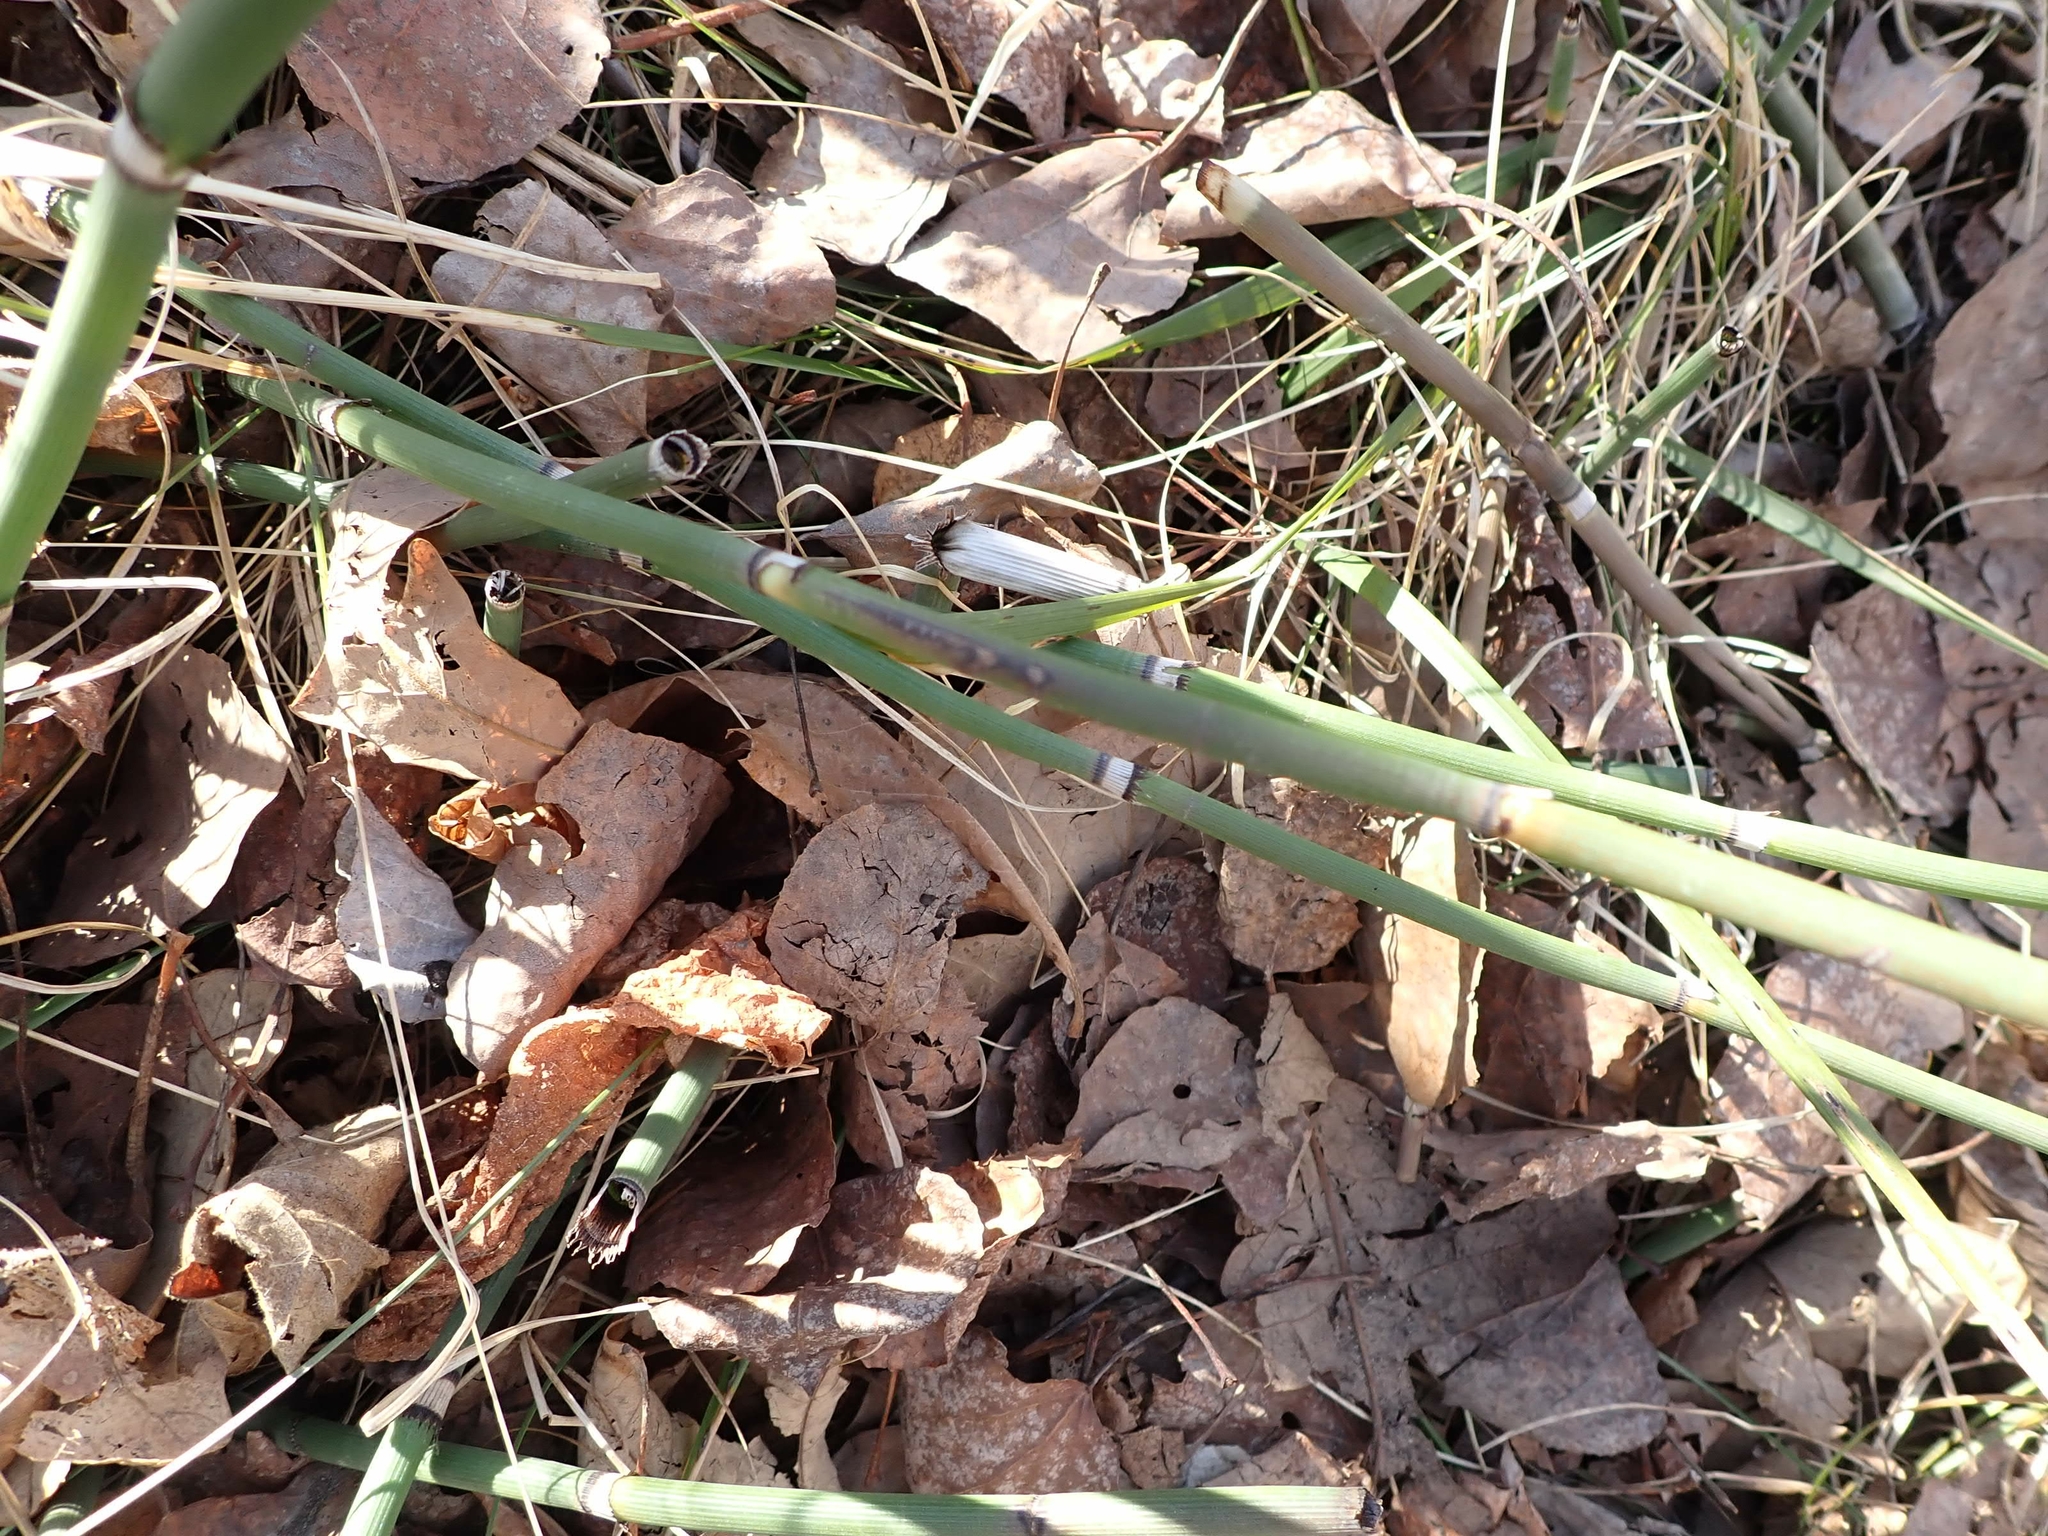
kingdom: Plantae
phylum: Tracheophyta
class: Polypodiopsida
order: Equisetales
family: Equisetaceae
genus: Equisetum
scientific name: Equisetum praealtum
